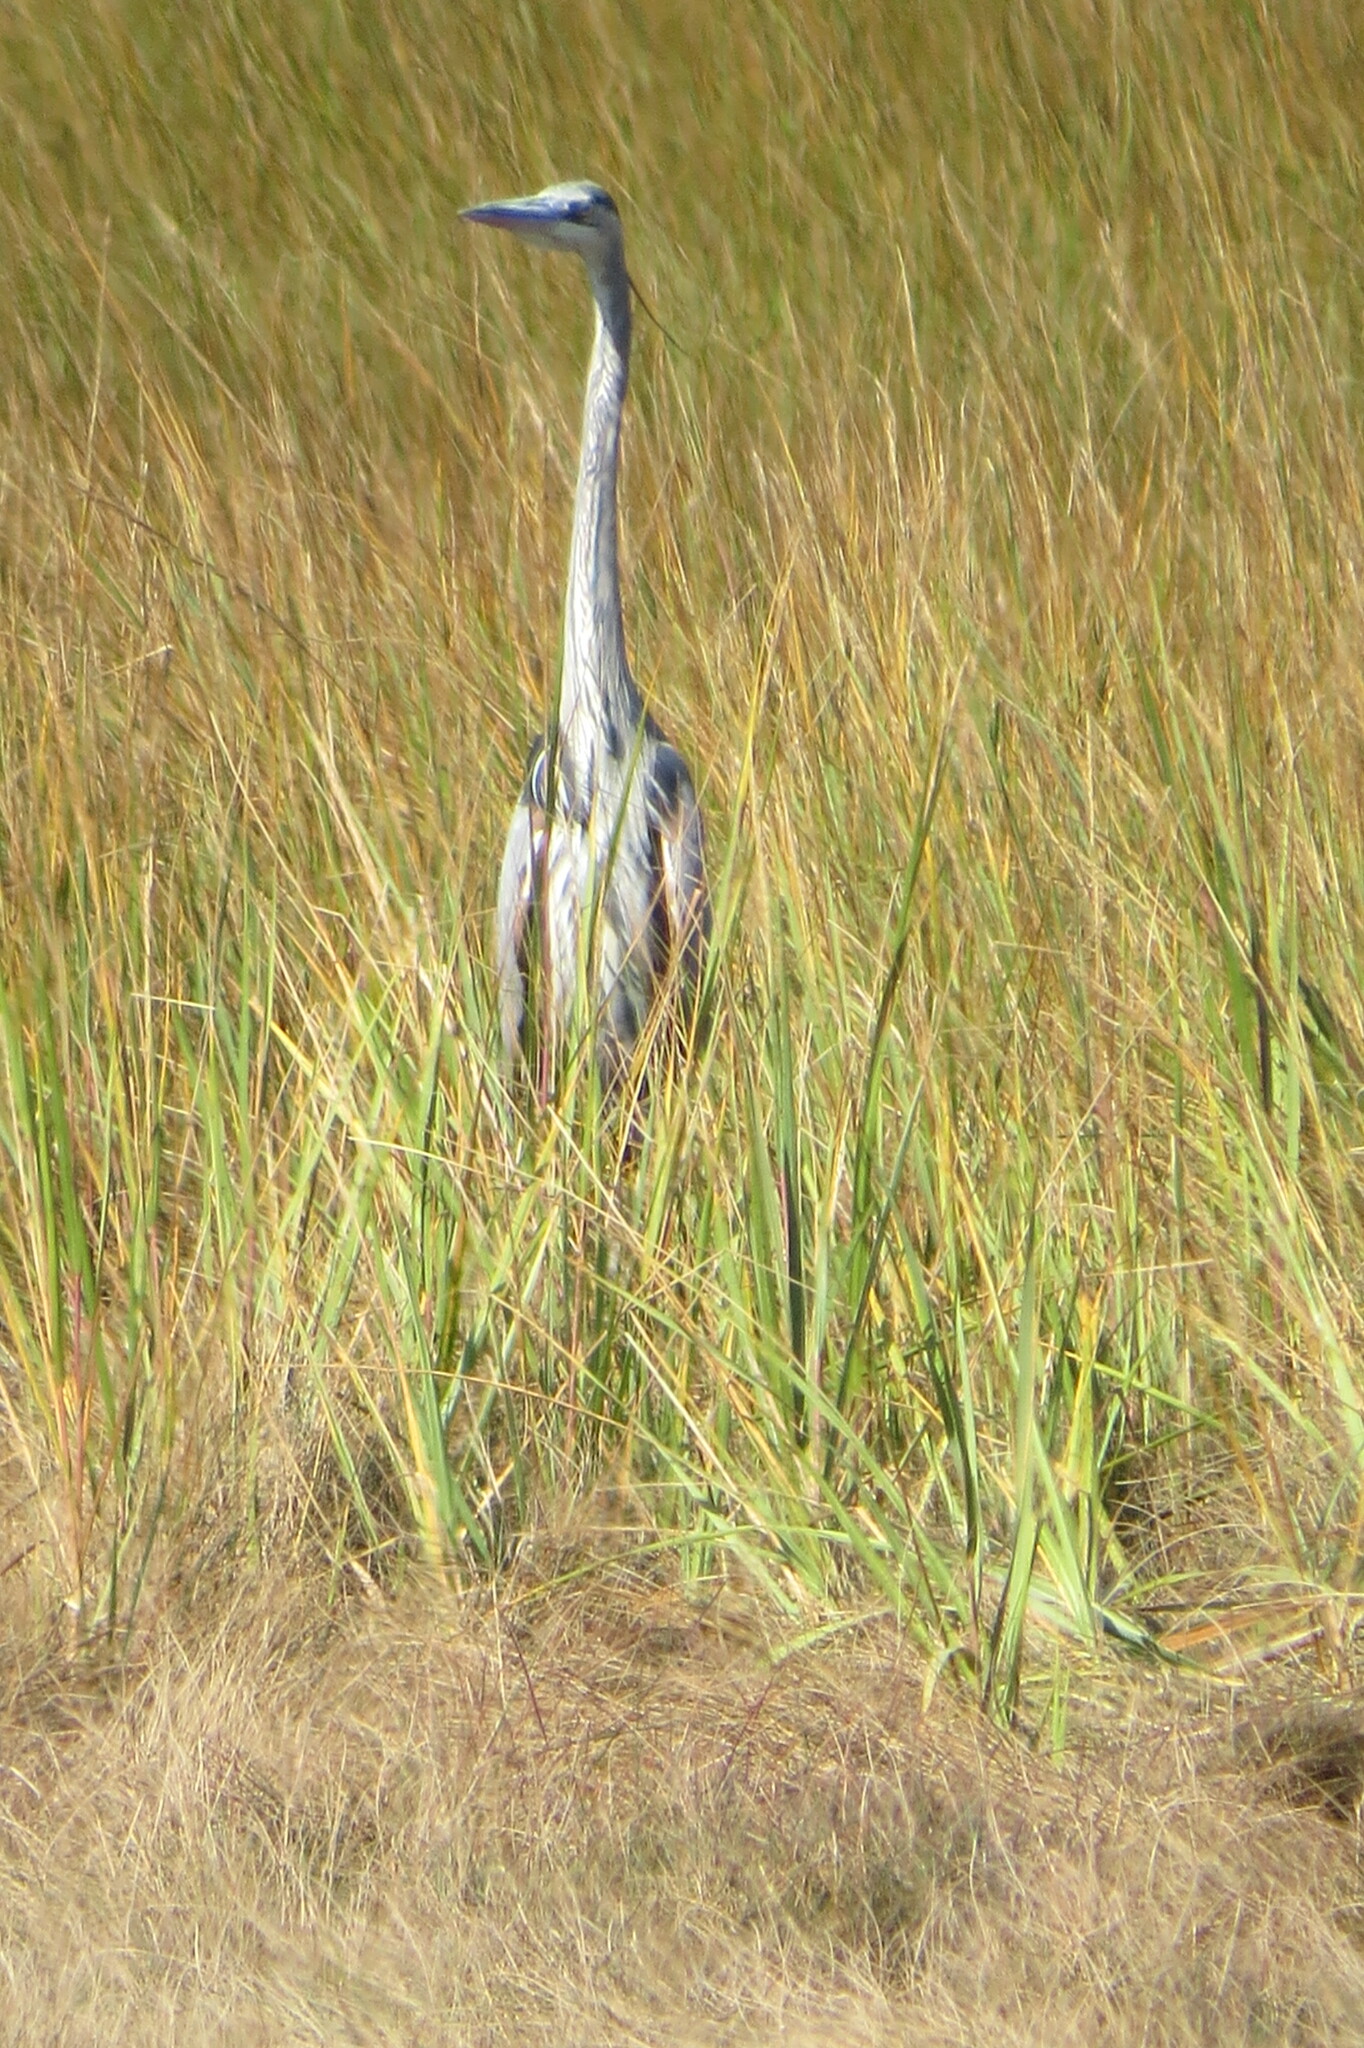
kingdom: Animalia
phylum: Chordata
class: Aves
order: Pelecaniformes
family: Ardeidae
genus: Ardea
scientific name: Ardea herodias
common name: Great blue heron
